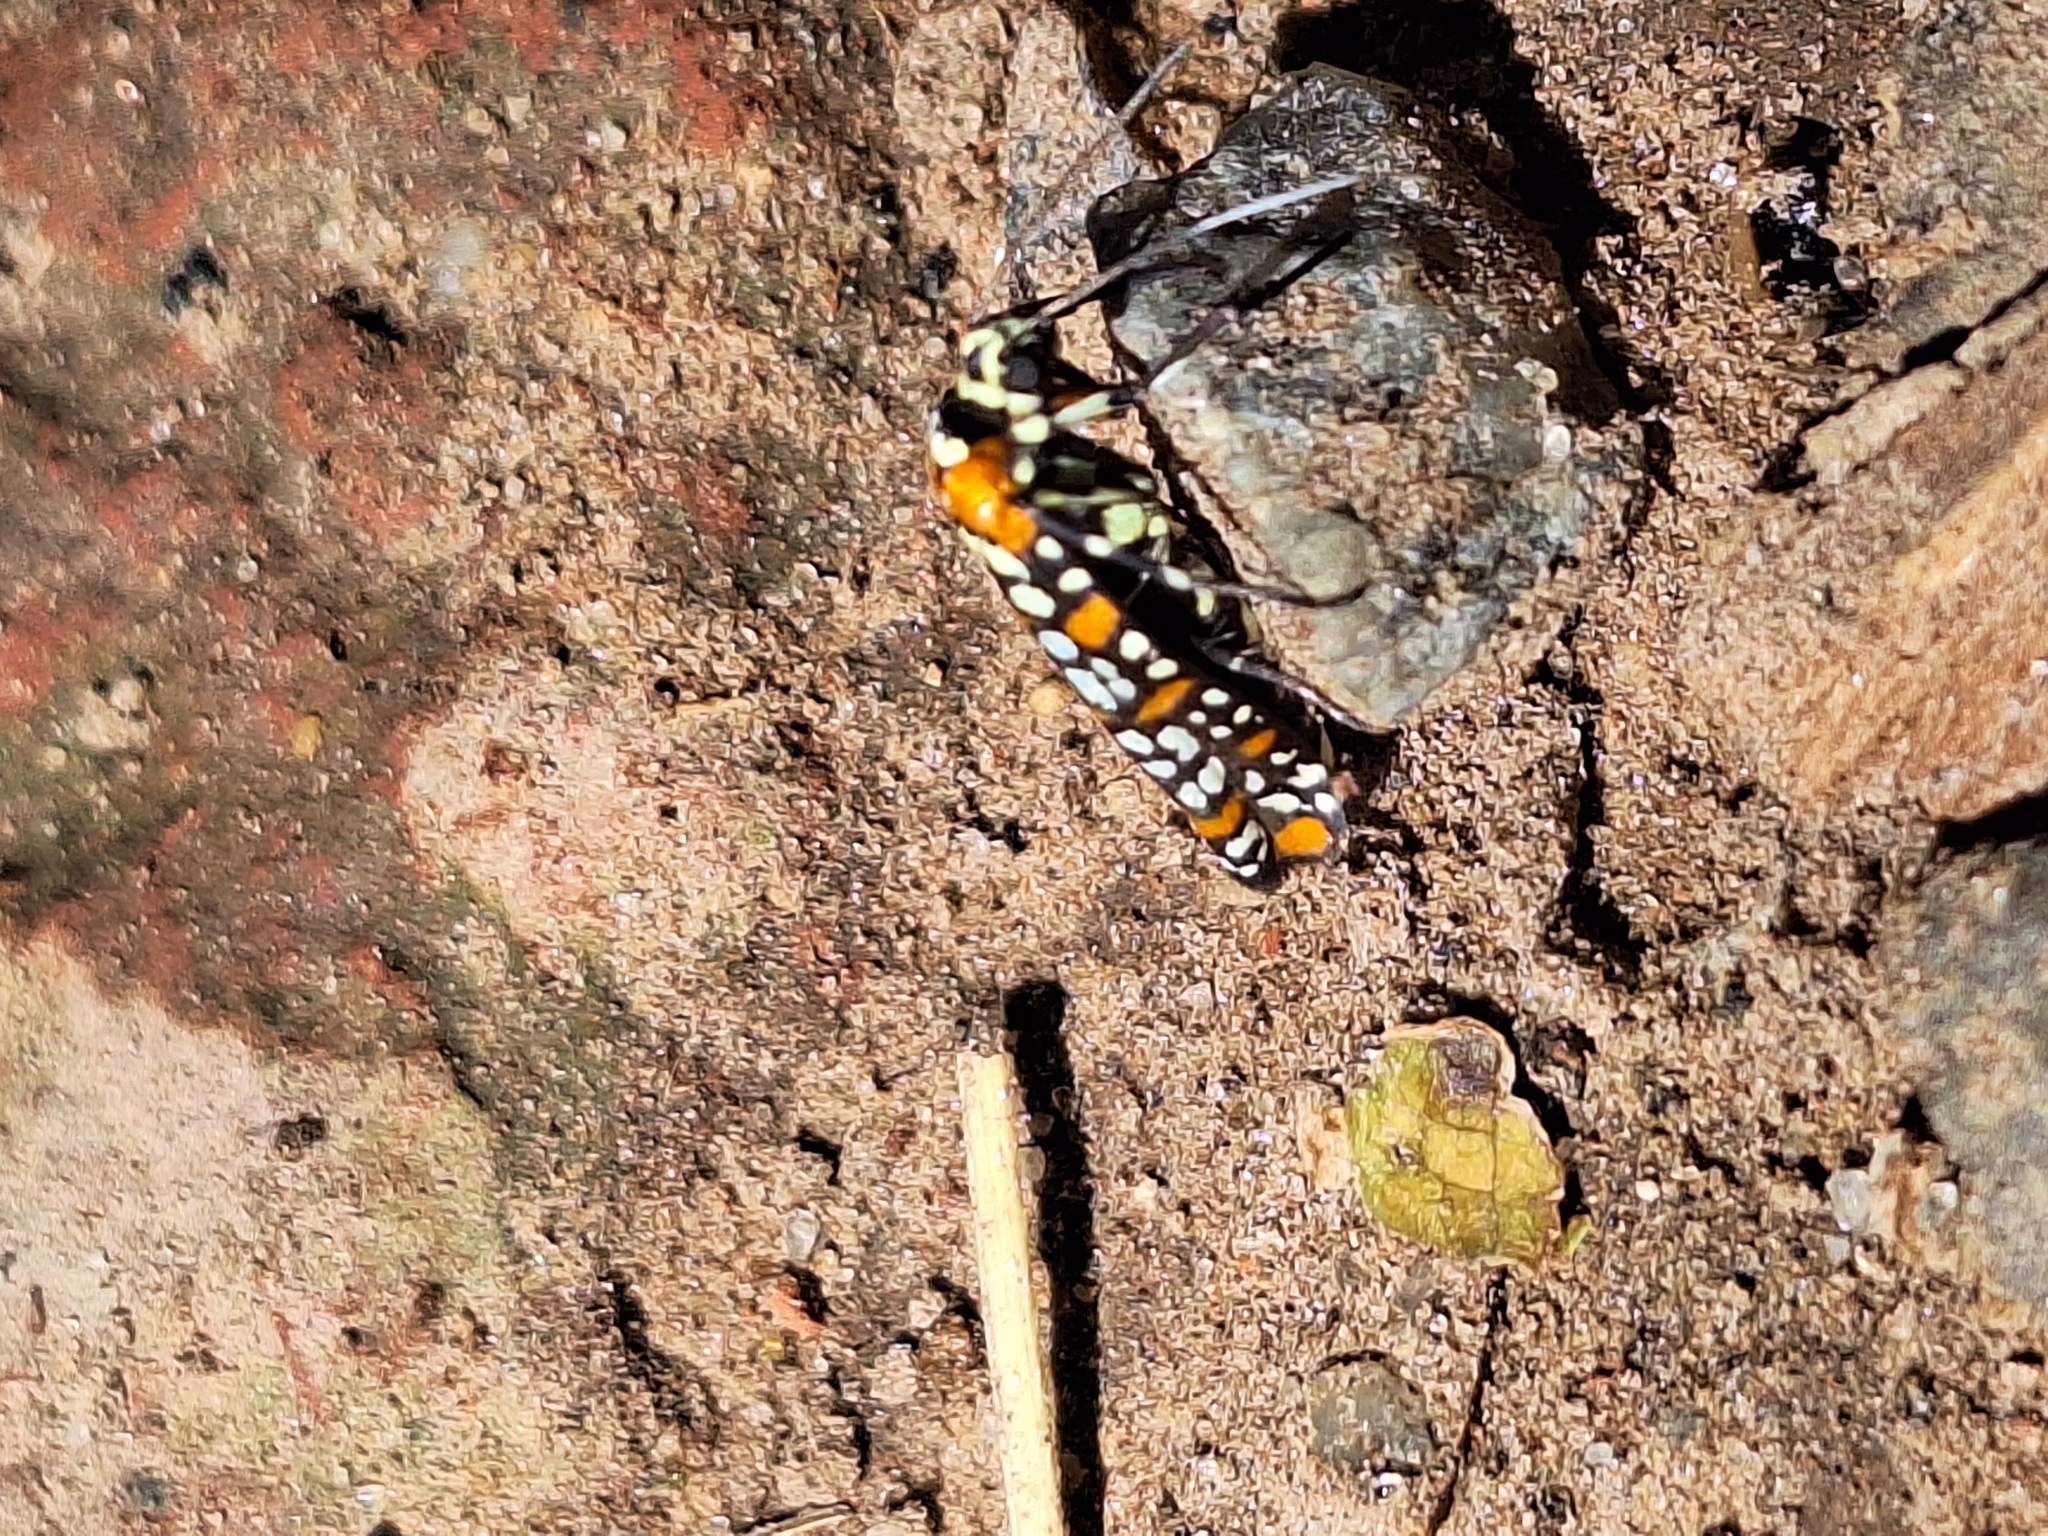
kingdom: Animalia
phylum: Arthropoda
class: Insecta
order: Lepidoptera
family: Attevidae
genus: Atteva
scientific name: Atteva punctella
